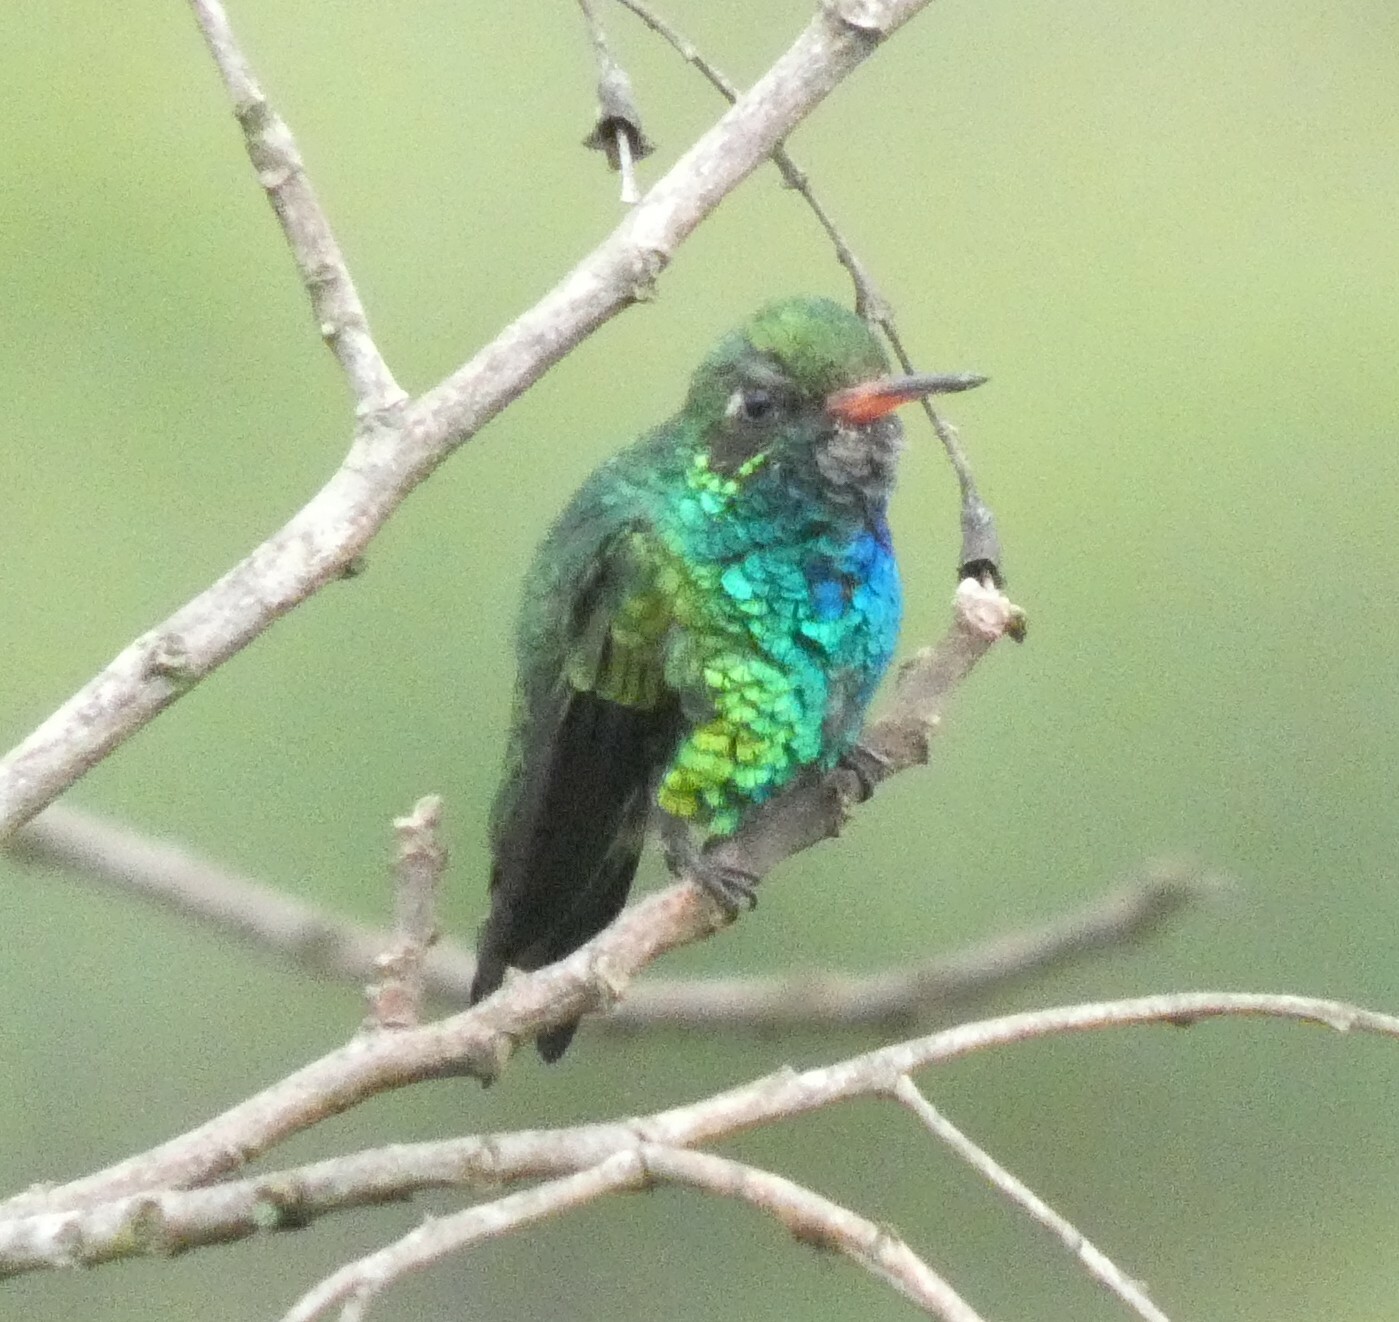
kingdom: Animalia
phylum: Chordata
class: Aves
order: Apodiformes
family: Trochilidae
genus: Chlorostilbon
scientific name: Chlorostilbon lucidus
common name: Glittering-bellied emerald
